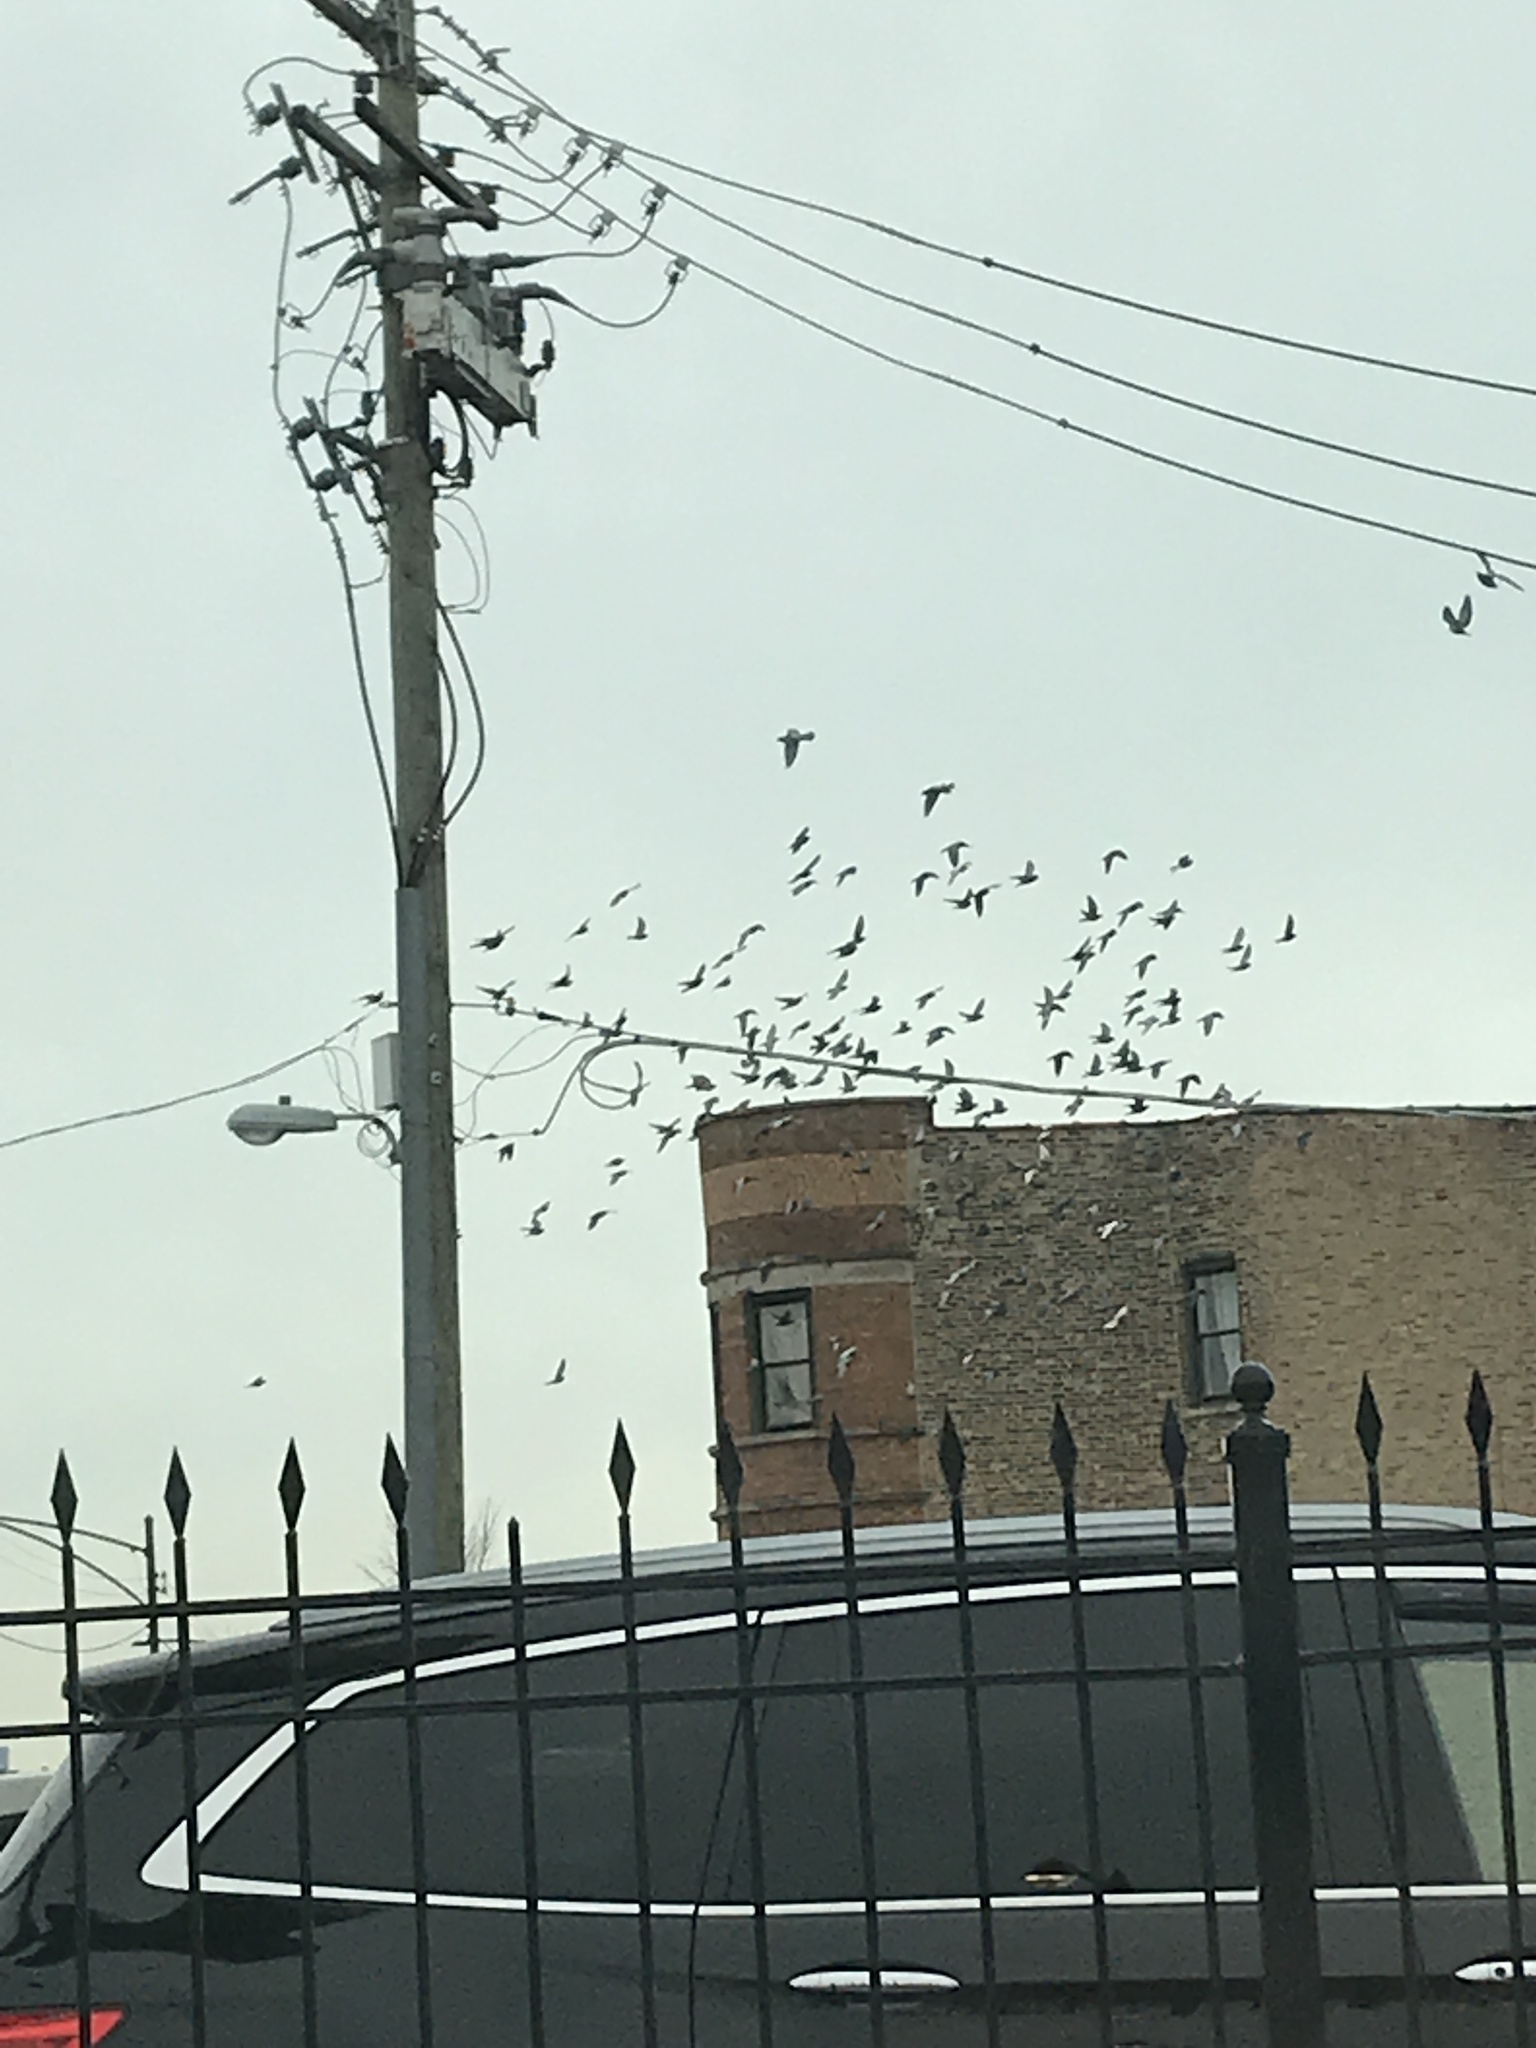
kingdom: Animalia
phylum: Chordata
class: Aves
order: Columbiformes
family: Columbidae
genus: Columba
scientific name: Columba livia
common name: Rock pigeon
